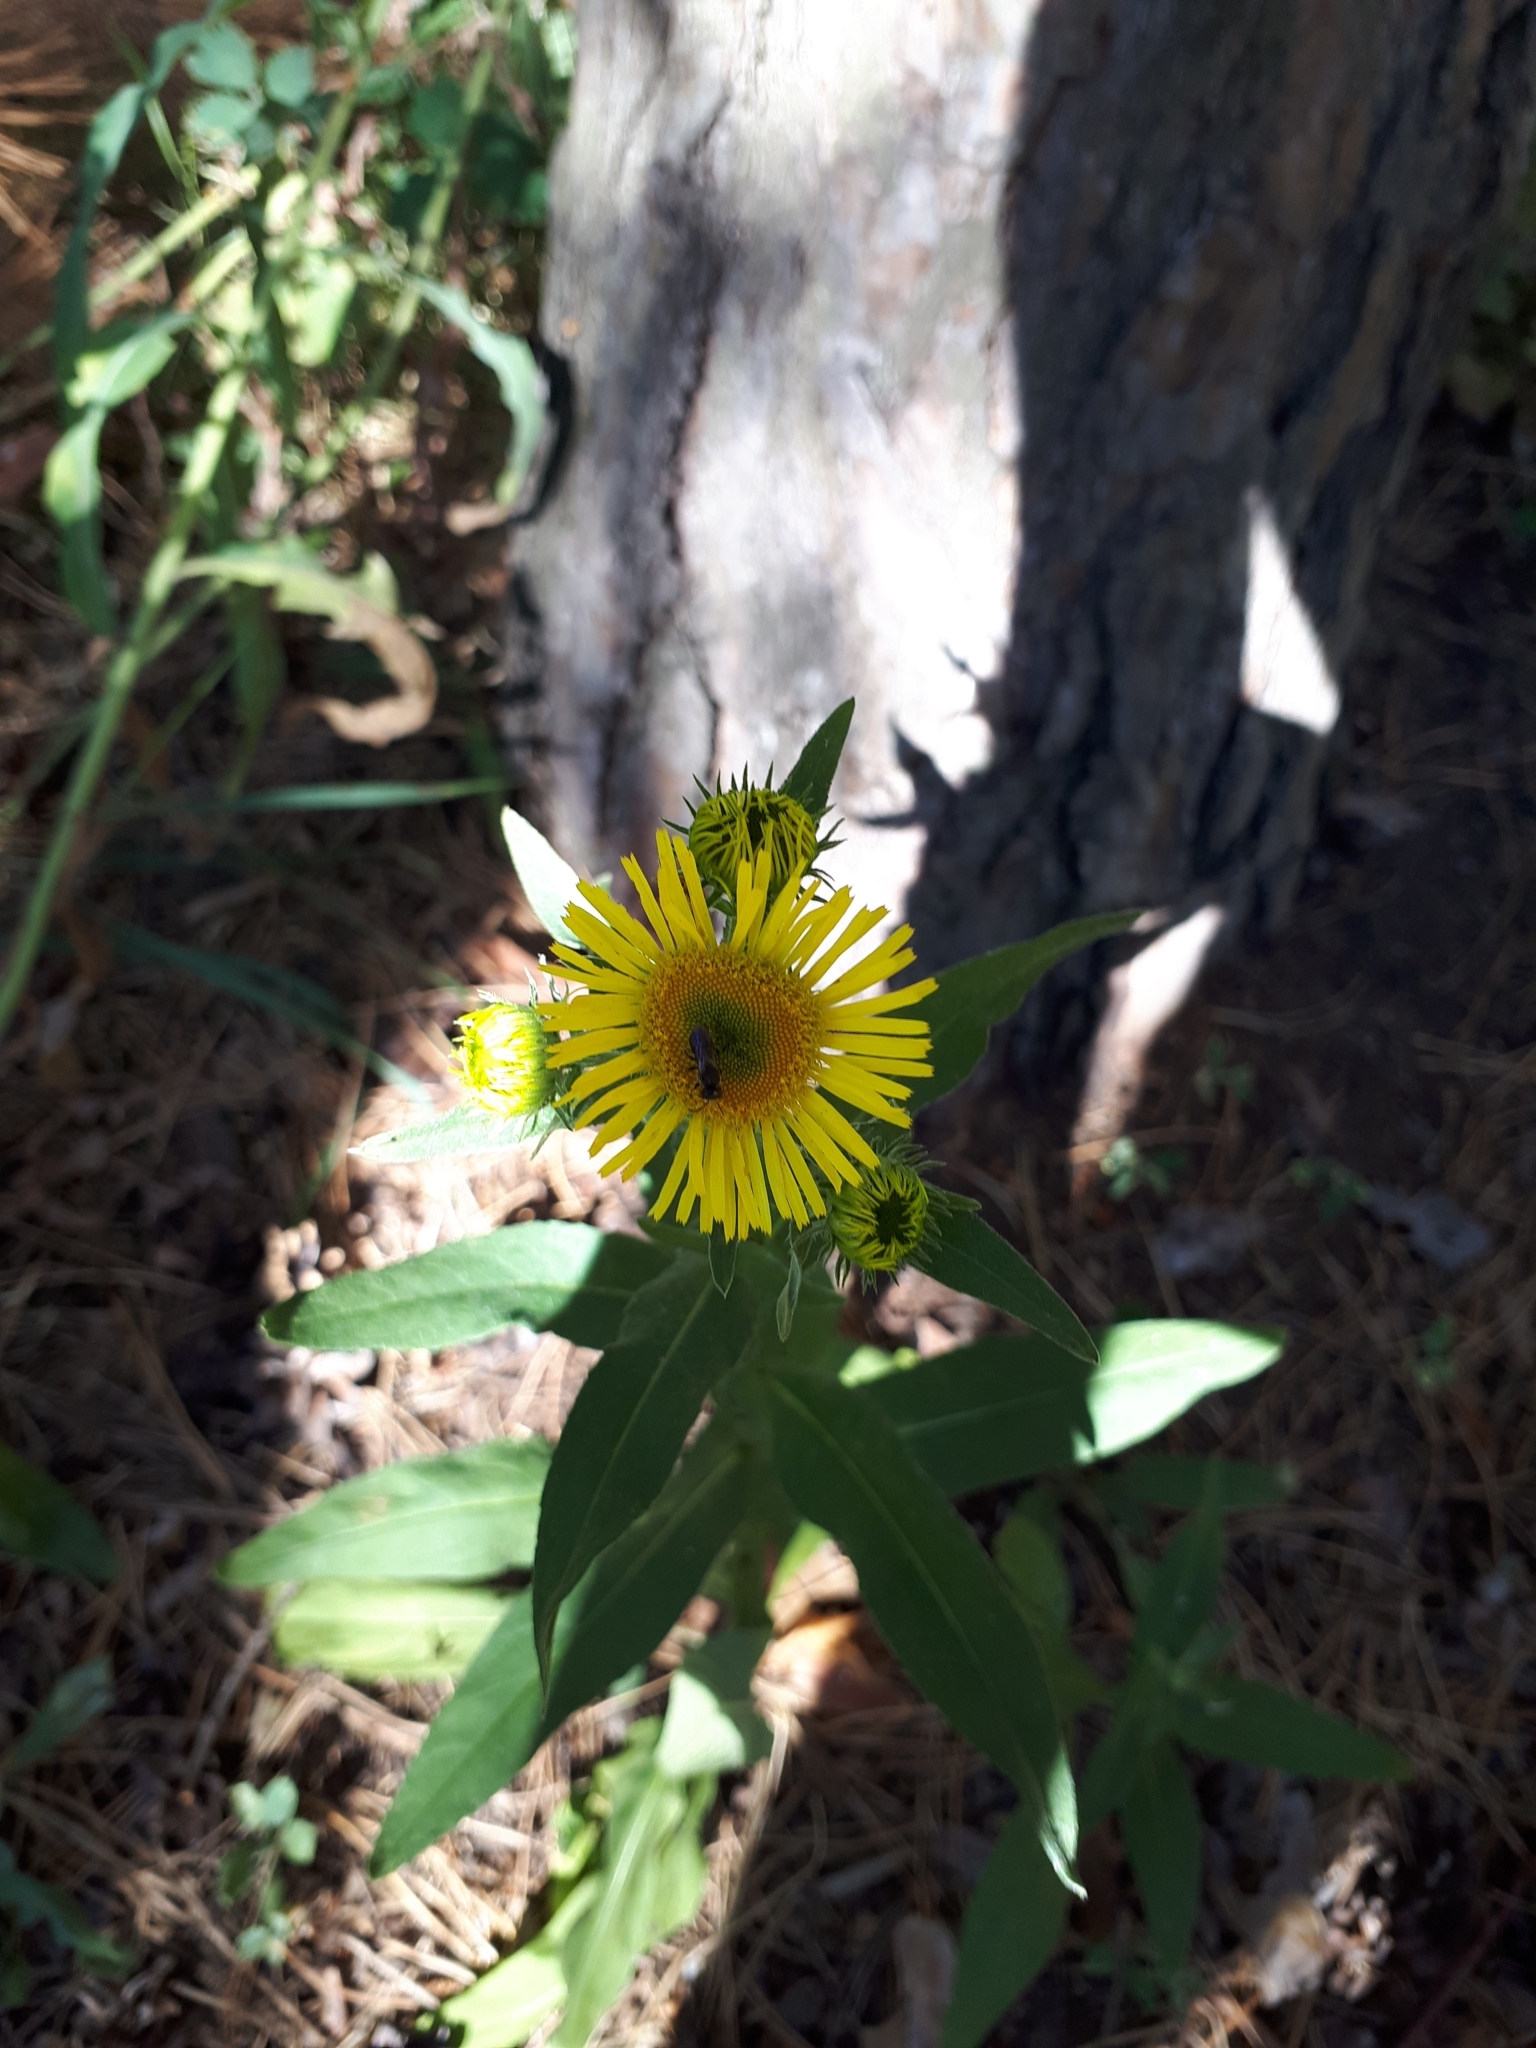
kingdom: Plantae
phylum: Tracheophyta
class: Magnoliopsida
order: Asterales
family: Asteraceae
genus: Pentanema
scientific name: Pentanema britannicum
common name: British elecampane
